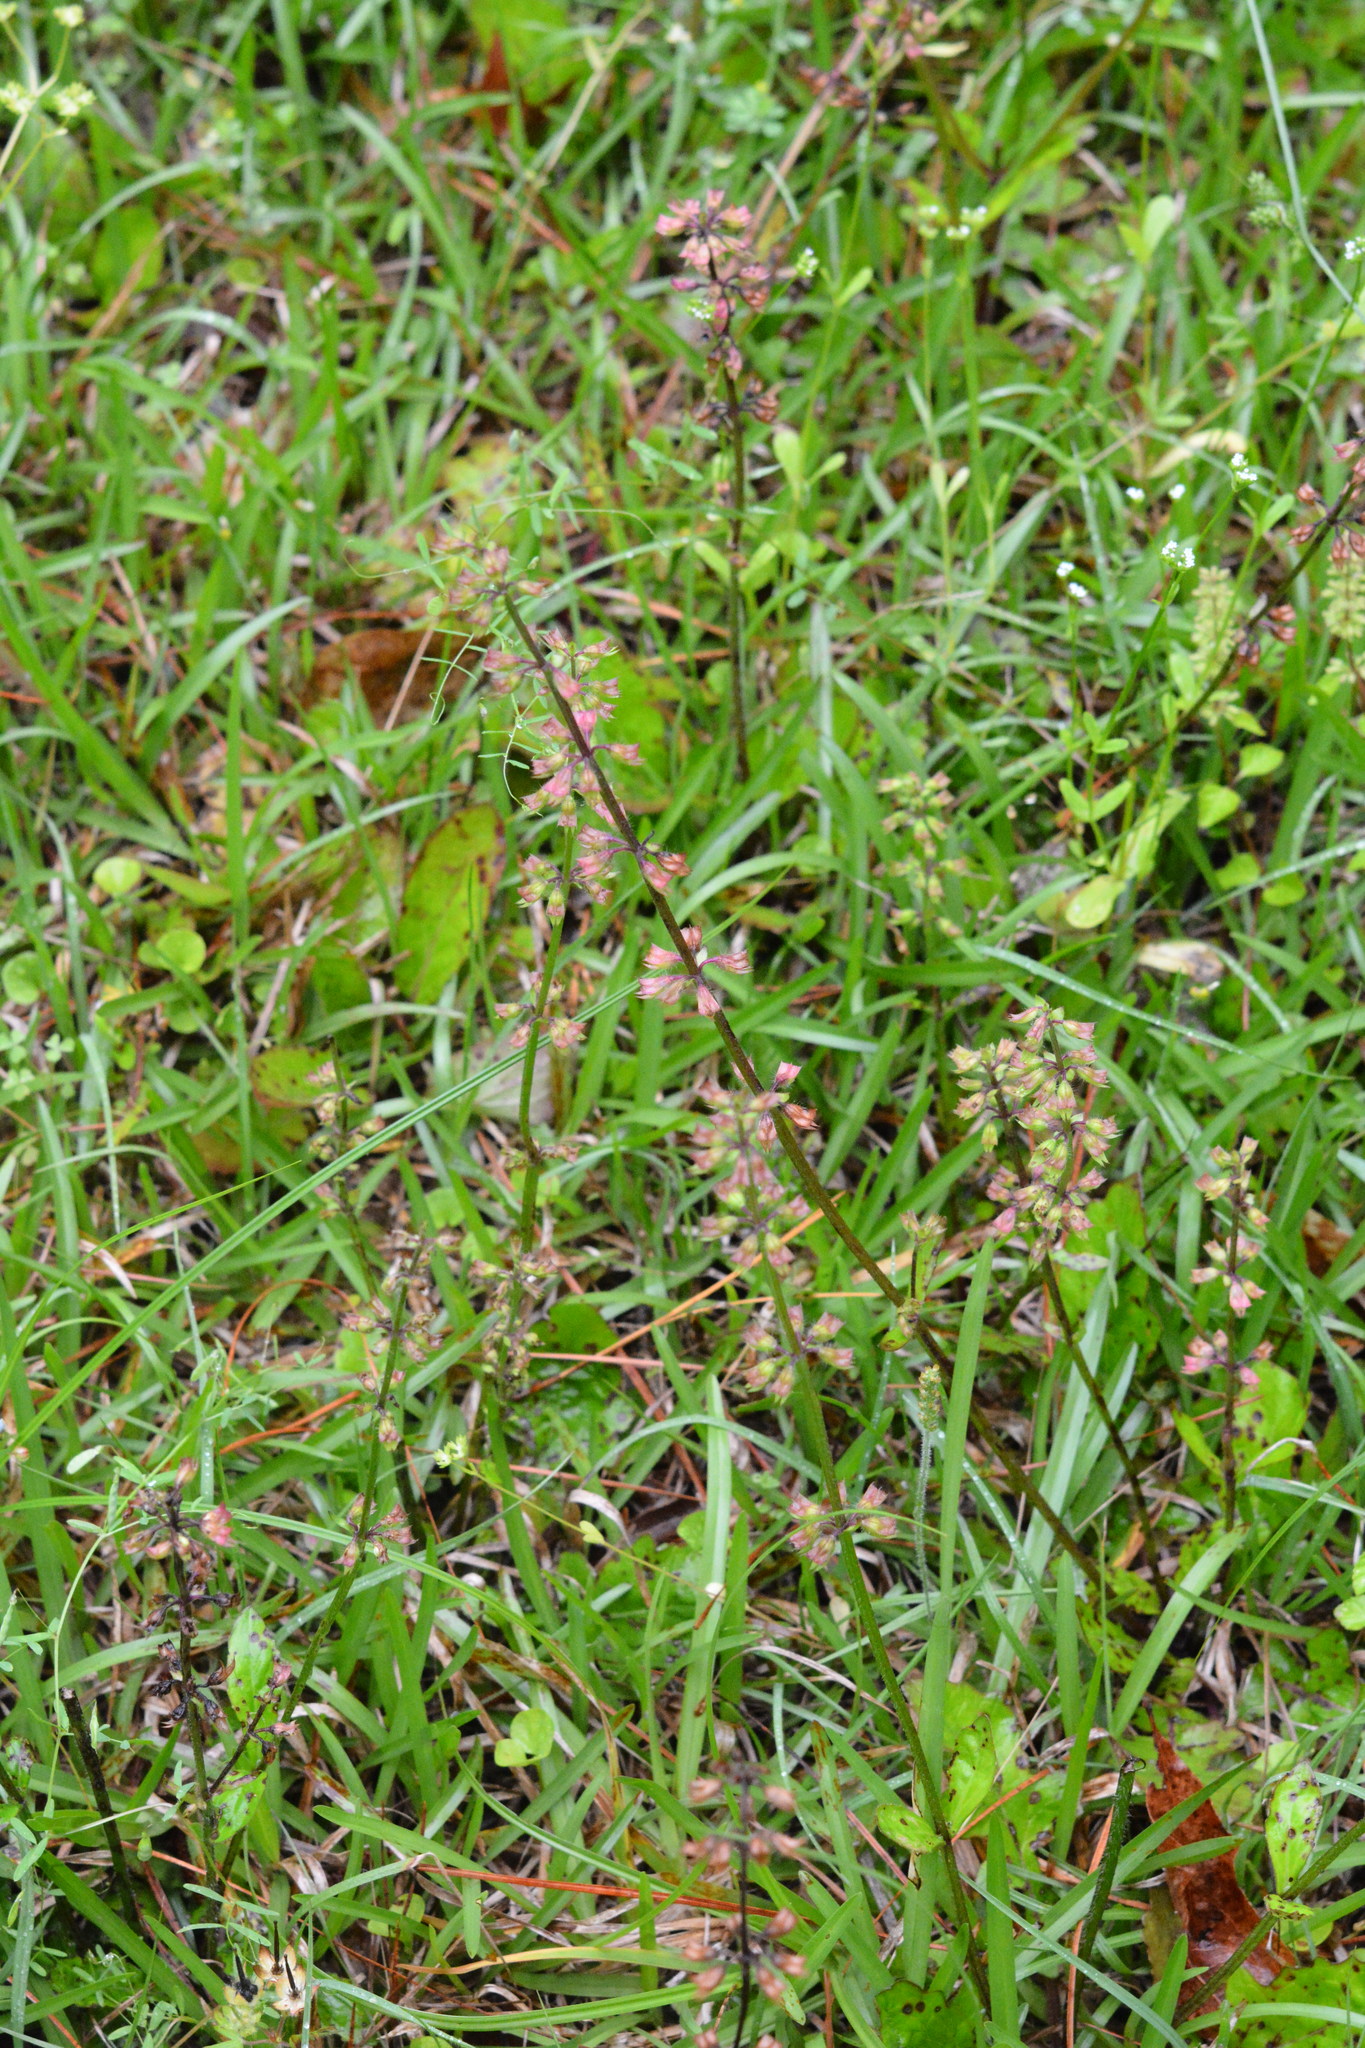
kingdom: Plantae
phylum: Tracheophyta
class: Magnoliopsida
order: Lamiales
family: Lamiaceae
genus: Salvia
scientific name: Salvia lyrata
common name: Cancerweed
